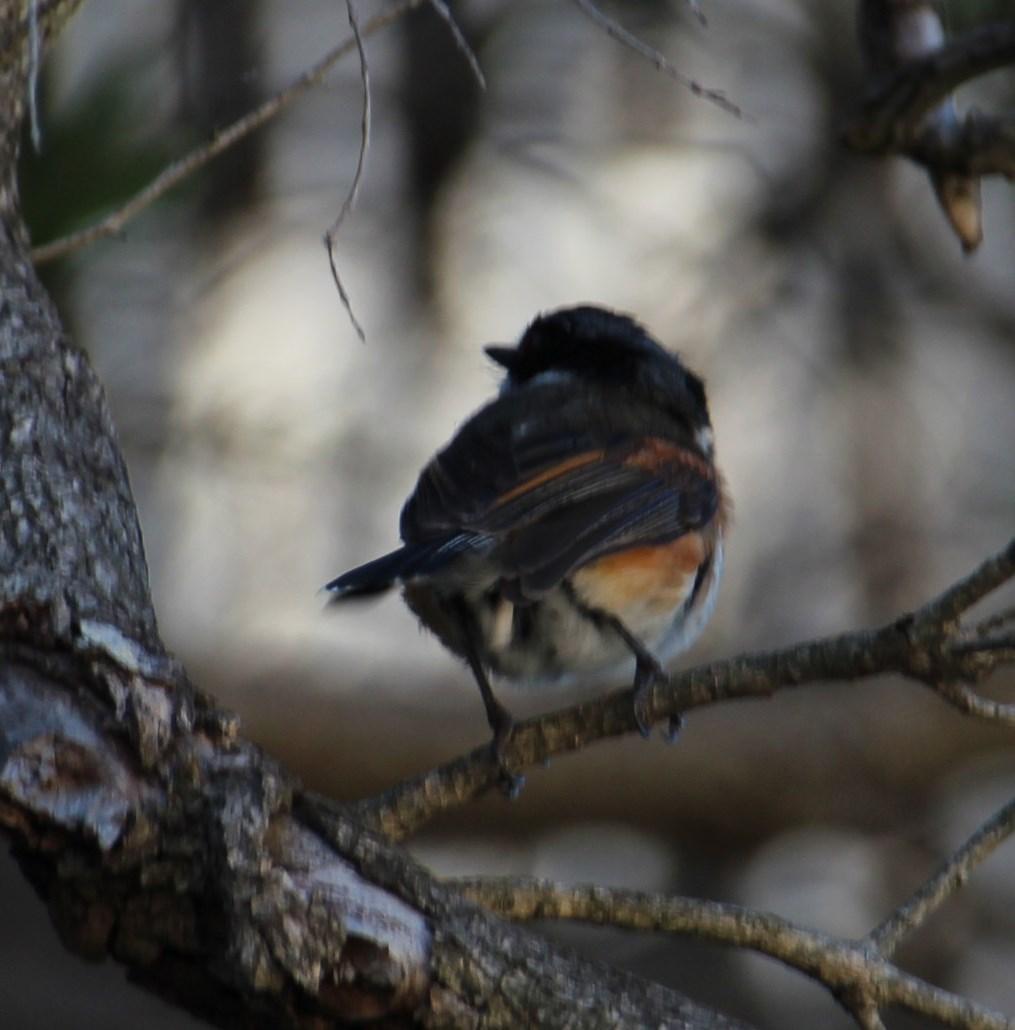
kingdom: Animalia
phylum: Chordata
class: Aves
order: Passeriformes
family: Platysteiridae
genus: Batis
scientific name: Batis capensis
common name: Cape batis
